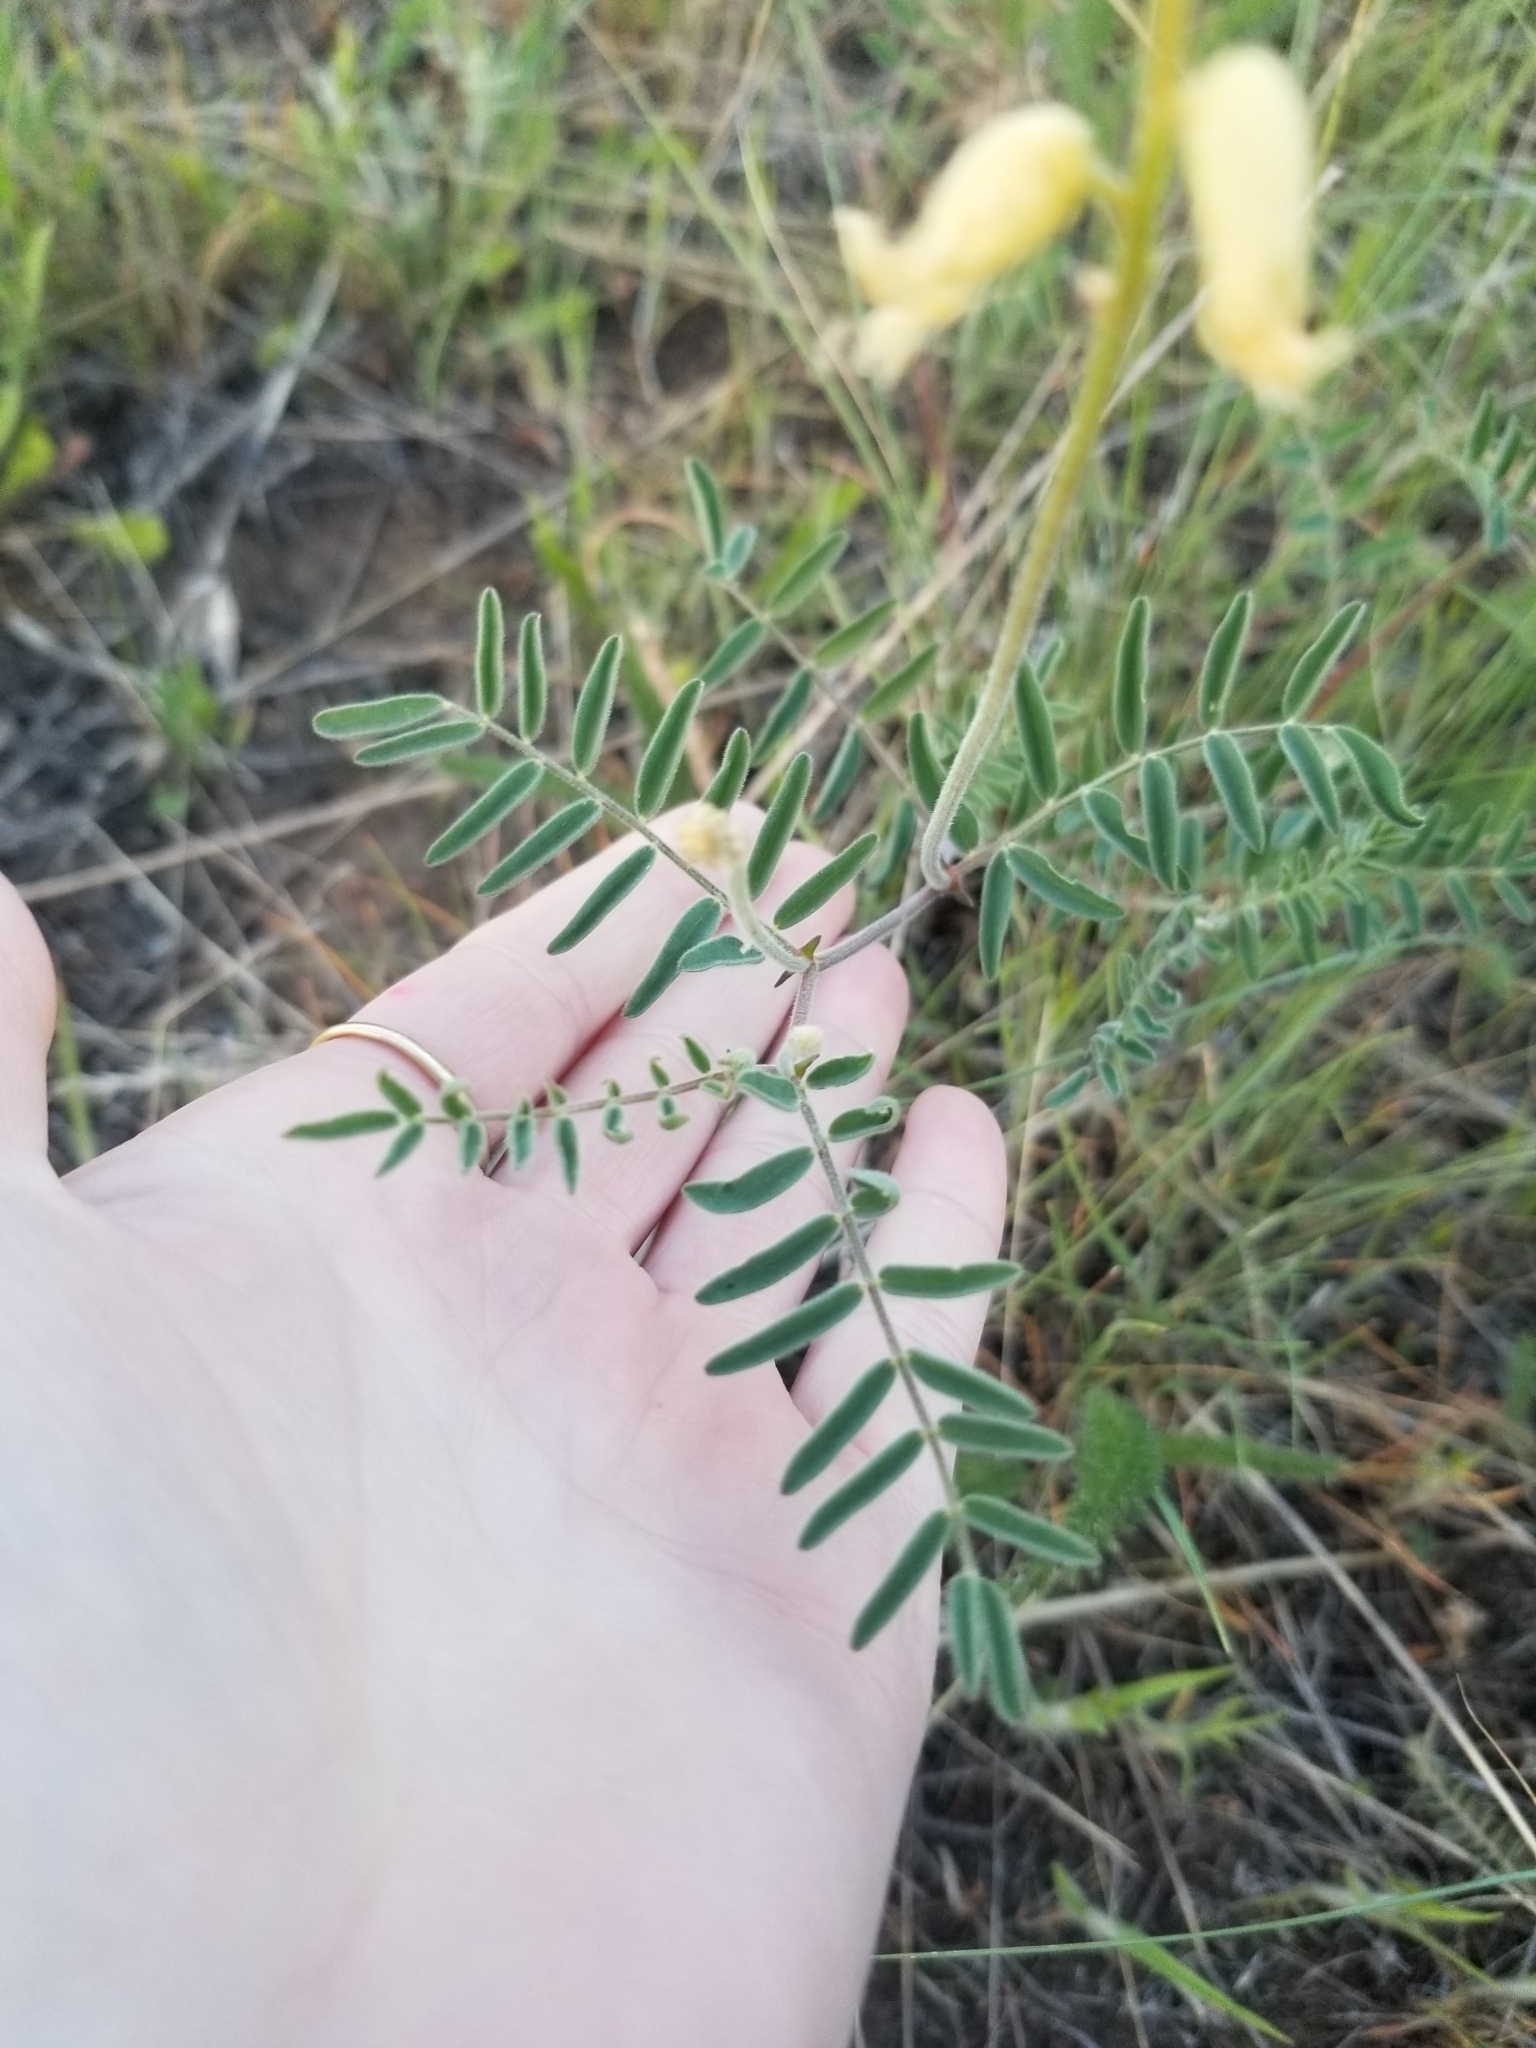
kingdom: Plantae
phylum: Tracheophyta
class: Magnoliopsida
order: Fabales
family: Fabaceae
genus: Astragalus
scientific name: Astragalus collinus
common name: Hill milk-vetch
